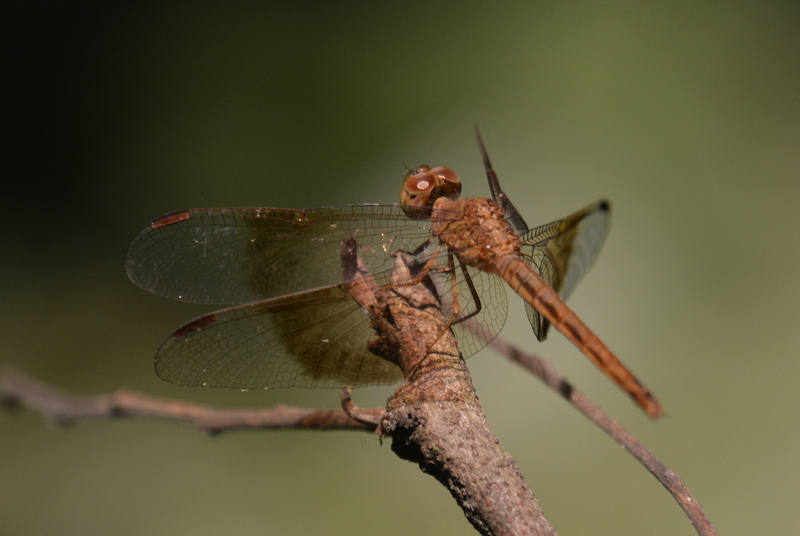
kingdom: Animalia
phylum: Arthropoda
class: Insecta
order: Odonata
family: Libellulidae
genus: Neurothemis
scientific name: Neurothemis fluctuans
